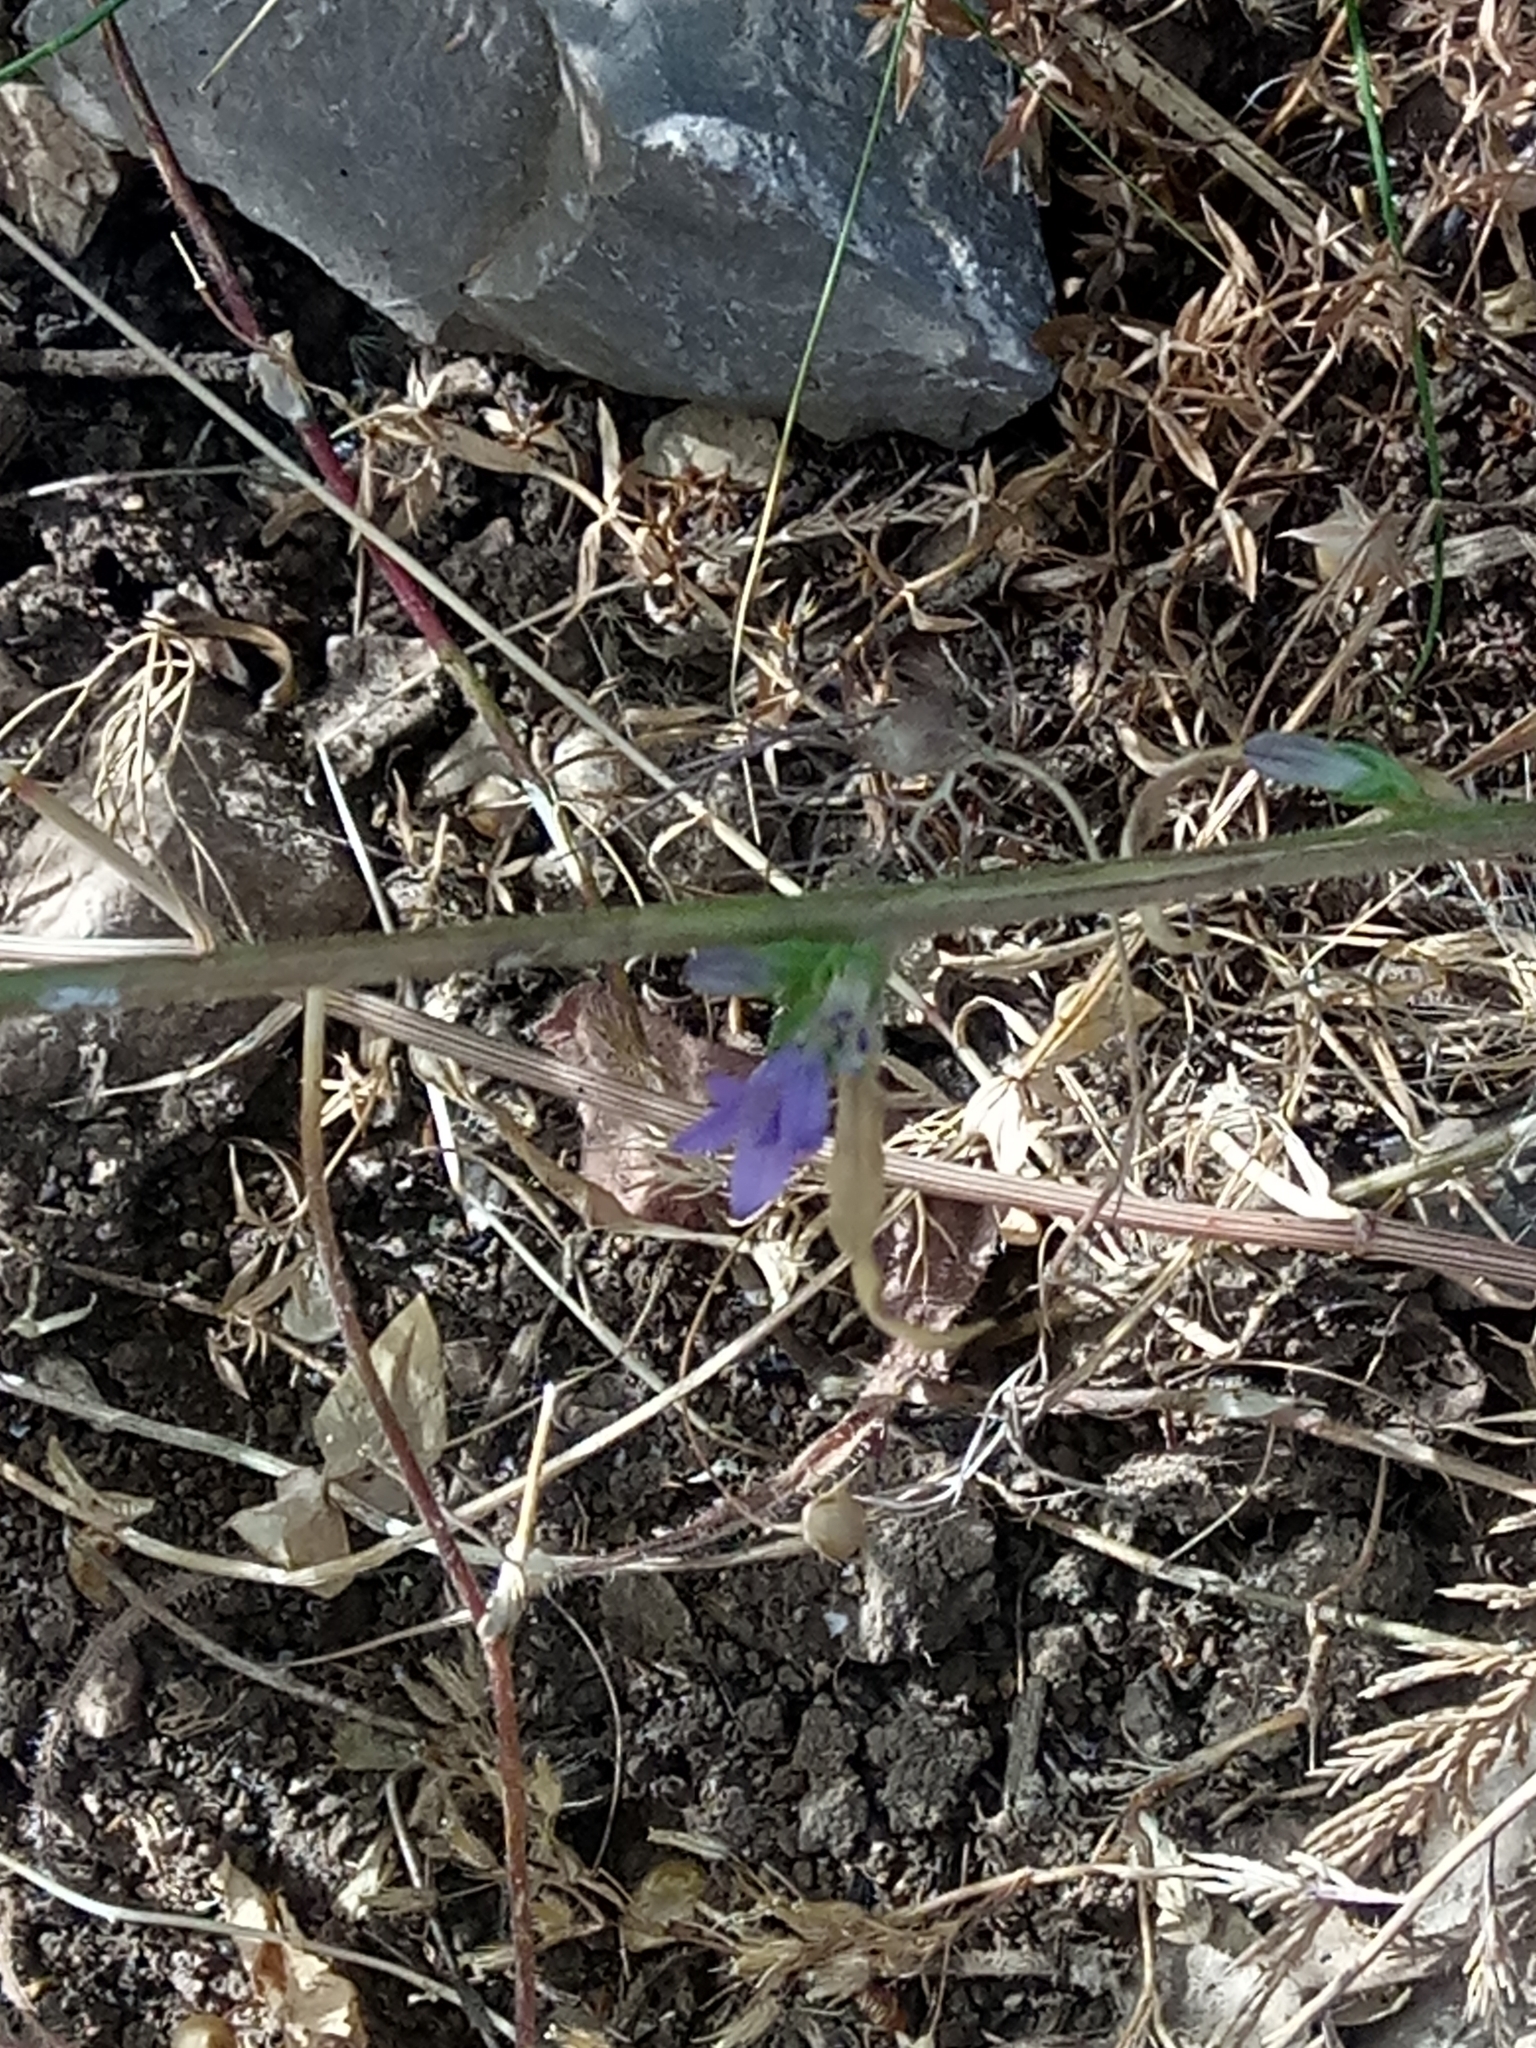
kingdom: Plantae
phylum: Tracheophyta
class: Magnoliopsida
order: Asterales
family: Campanulaceae
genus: Campanula
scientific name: Campanula rapunculus
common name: Rampion bellflower
